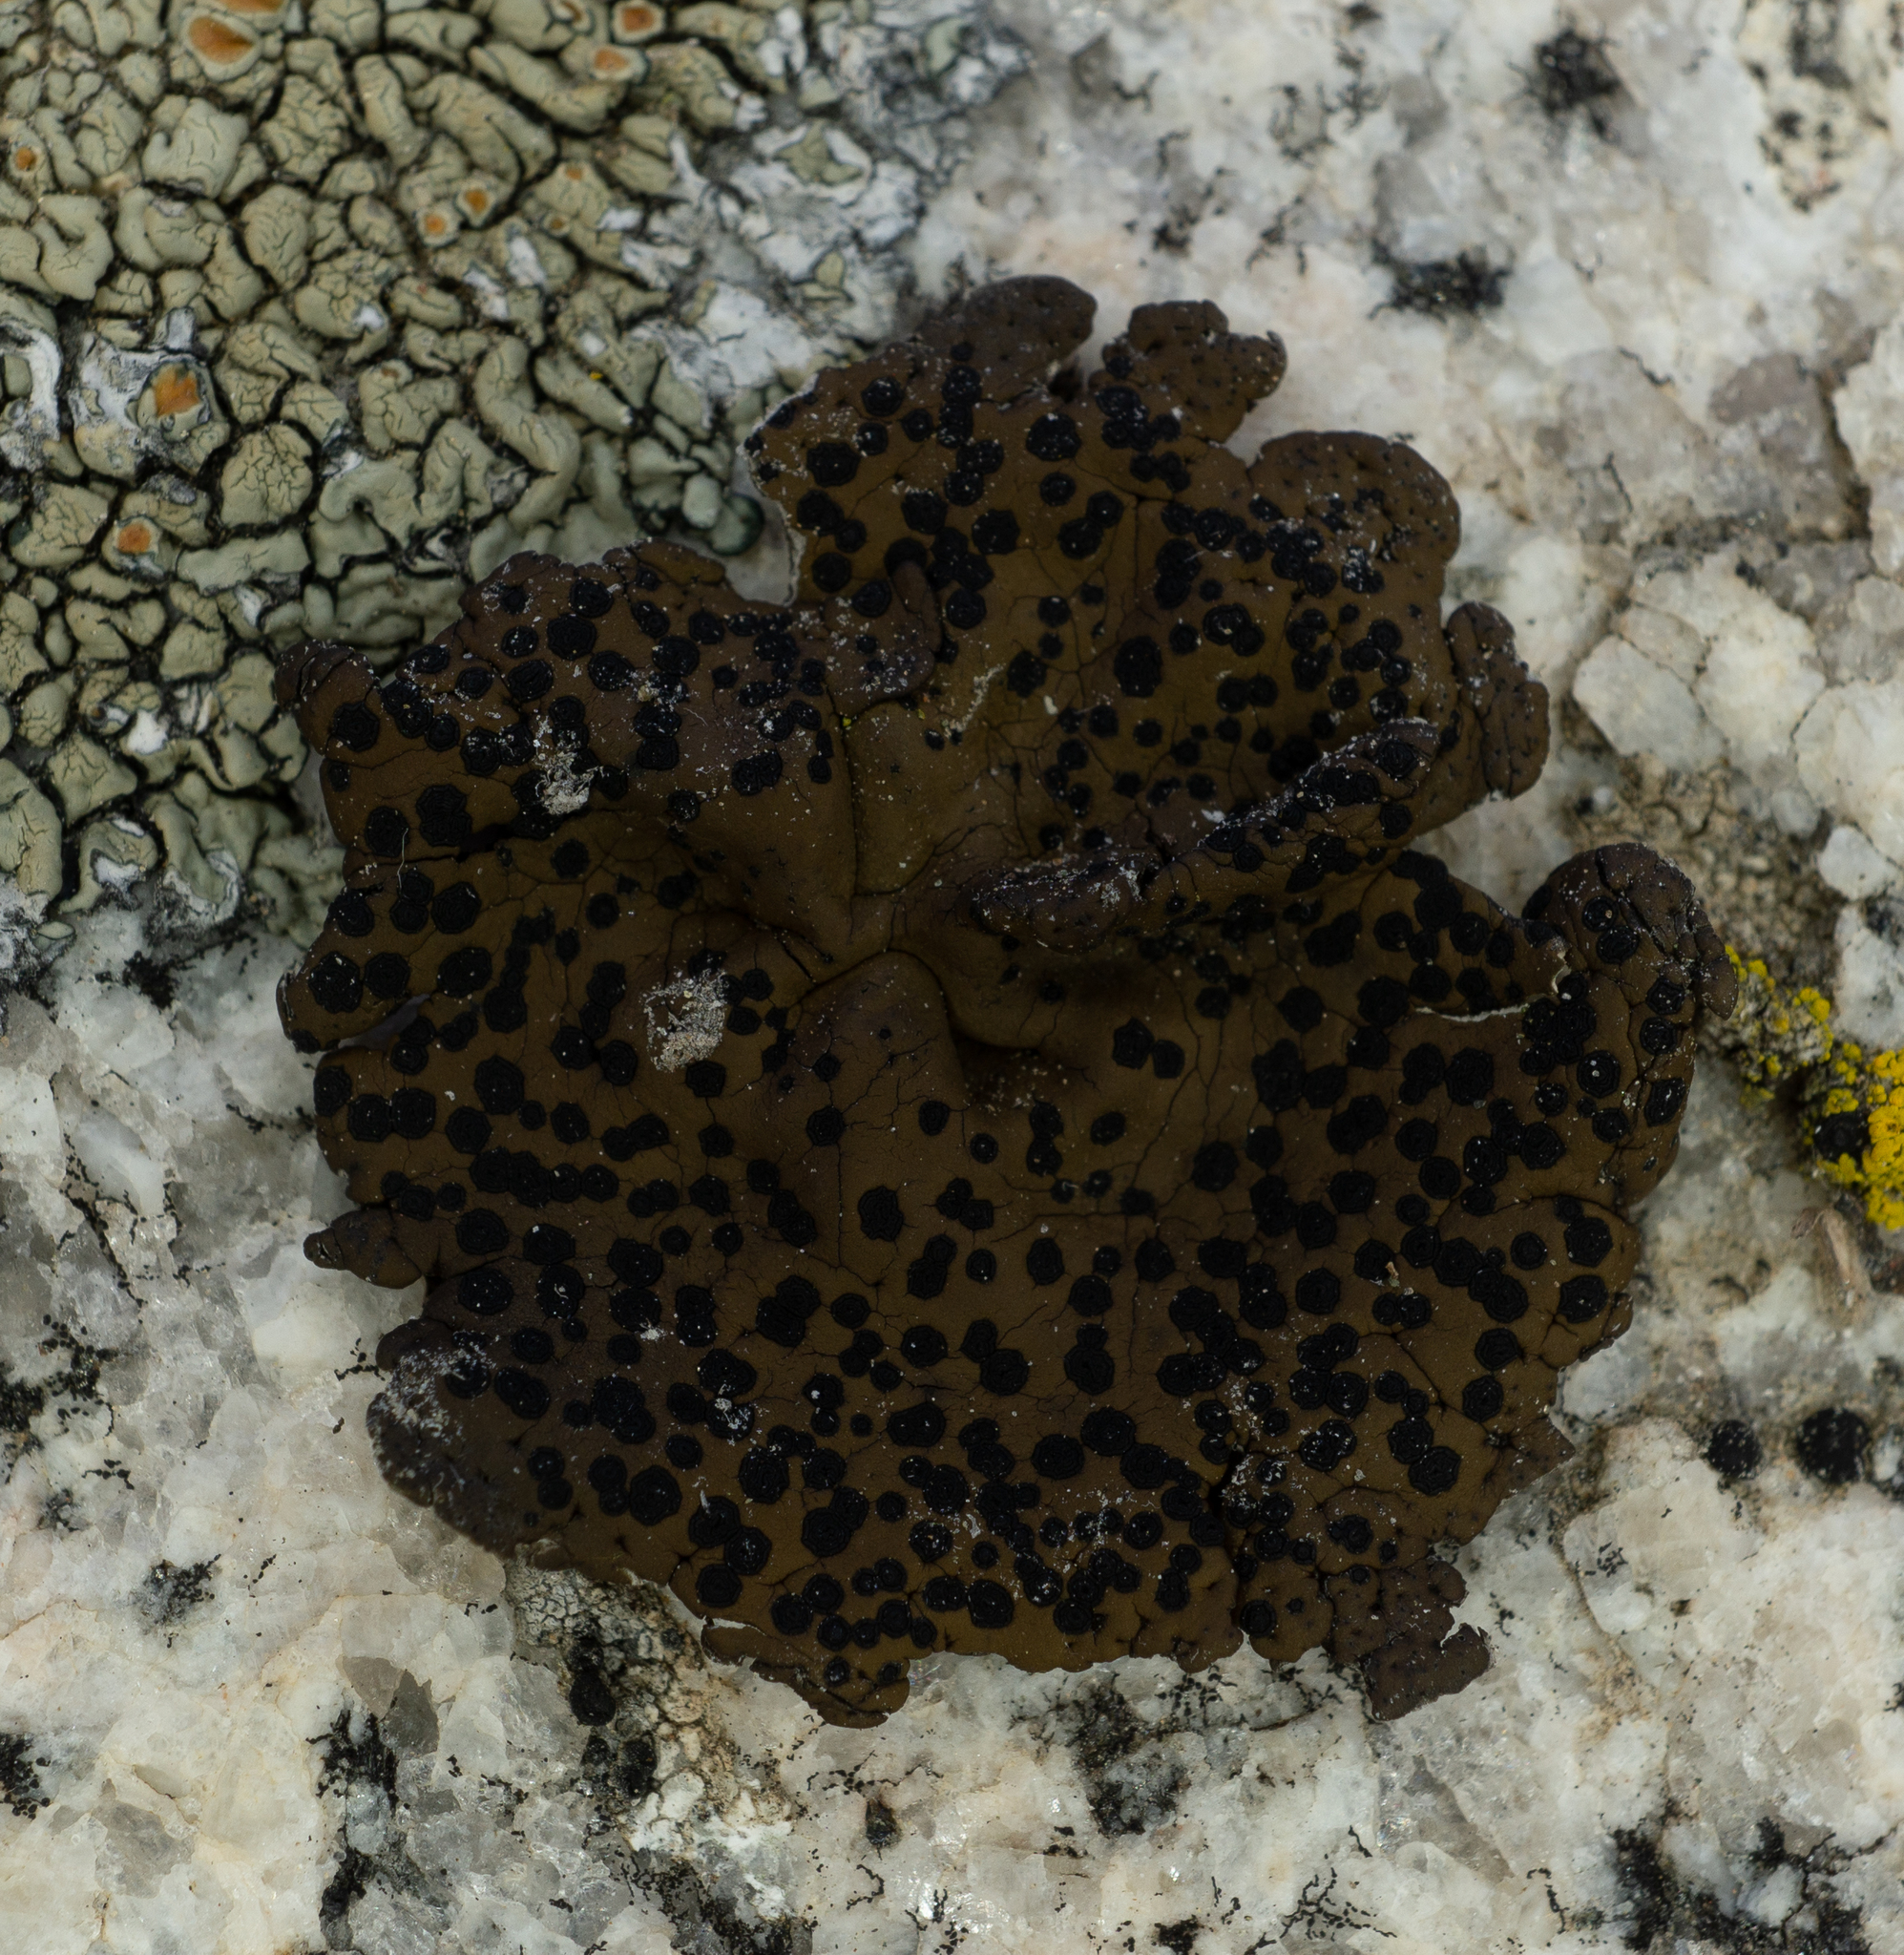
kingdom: Fungi
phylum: Ascomycota
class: Lecanoromycetes
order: Umbilicariales
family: Umbilicariaceae
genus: Umbilicaria
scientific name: Umbilicaria phaea
